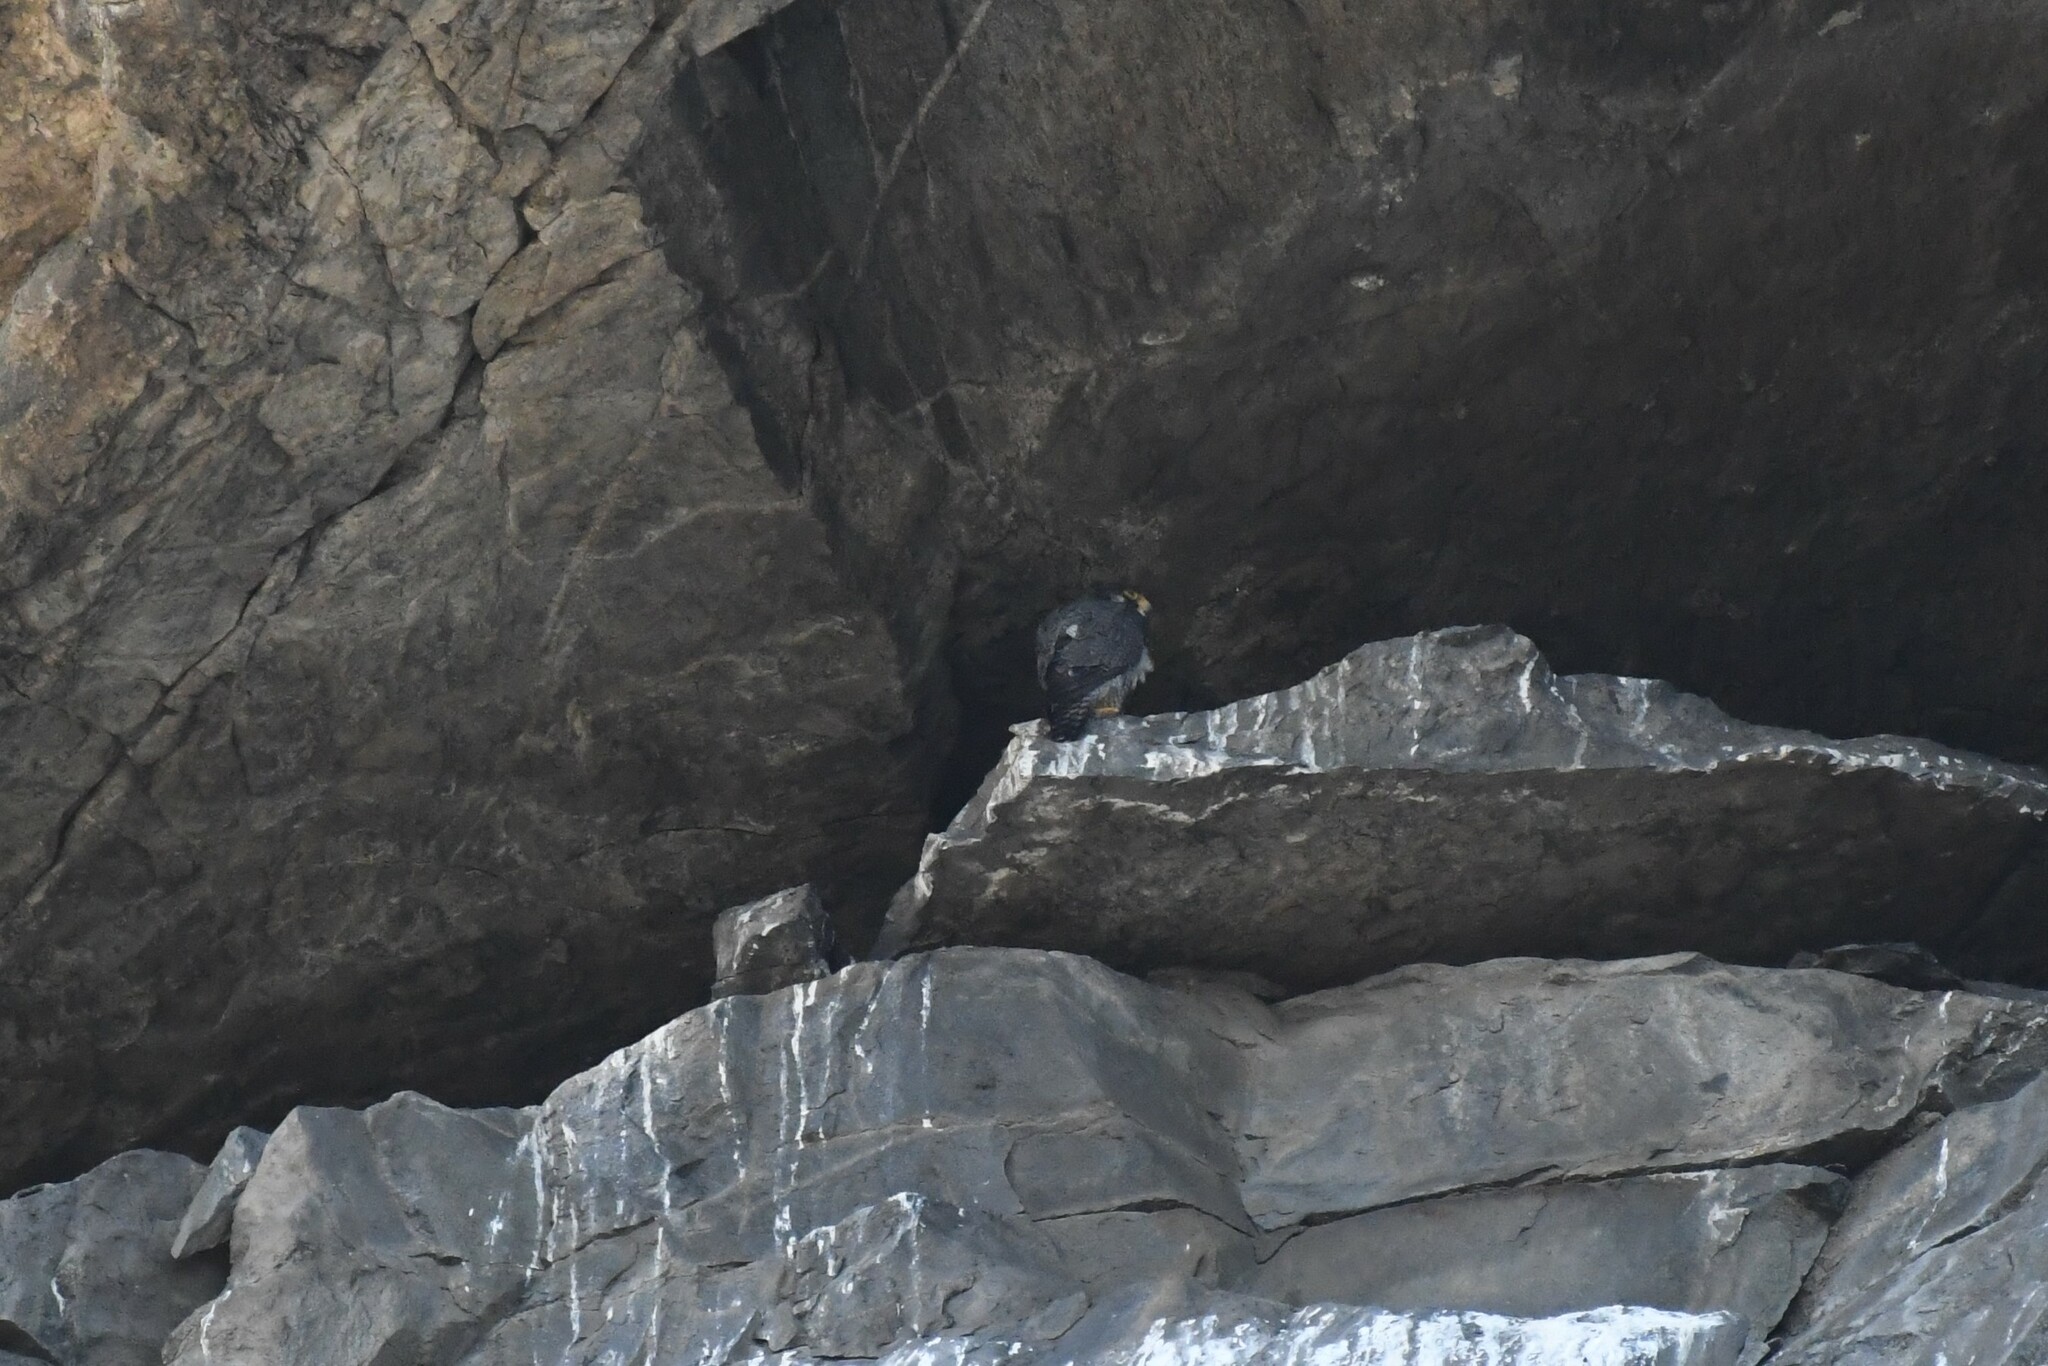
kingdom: Animalia
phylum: Chordata
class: Aves
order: Falconiformes
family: Falconidae
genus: Falco
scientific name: Falco peregrinus
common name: Peregrine falcon
